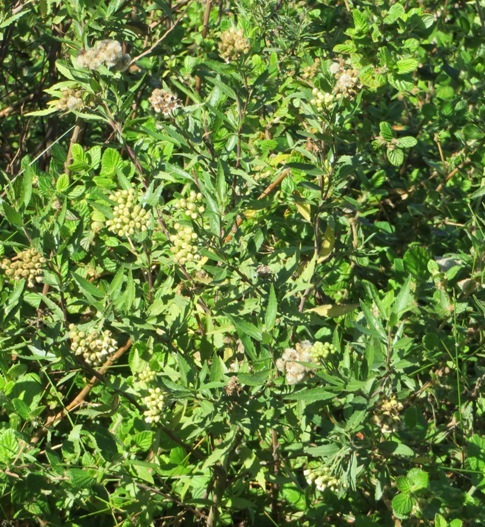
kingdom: Plantae
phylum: Tracheophyta
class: Magnoliopsida
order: Asterales
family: Asteraceae
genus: Nidorella
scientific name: Nidorella ivifolia
